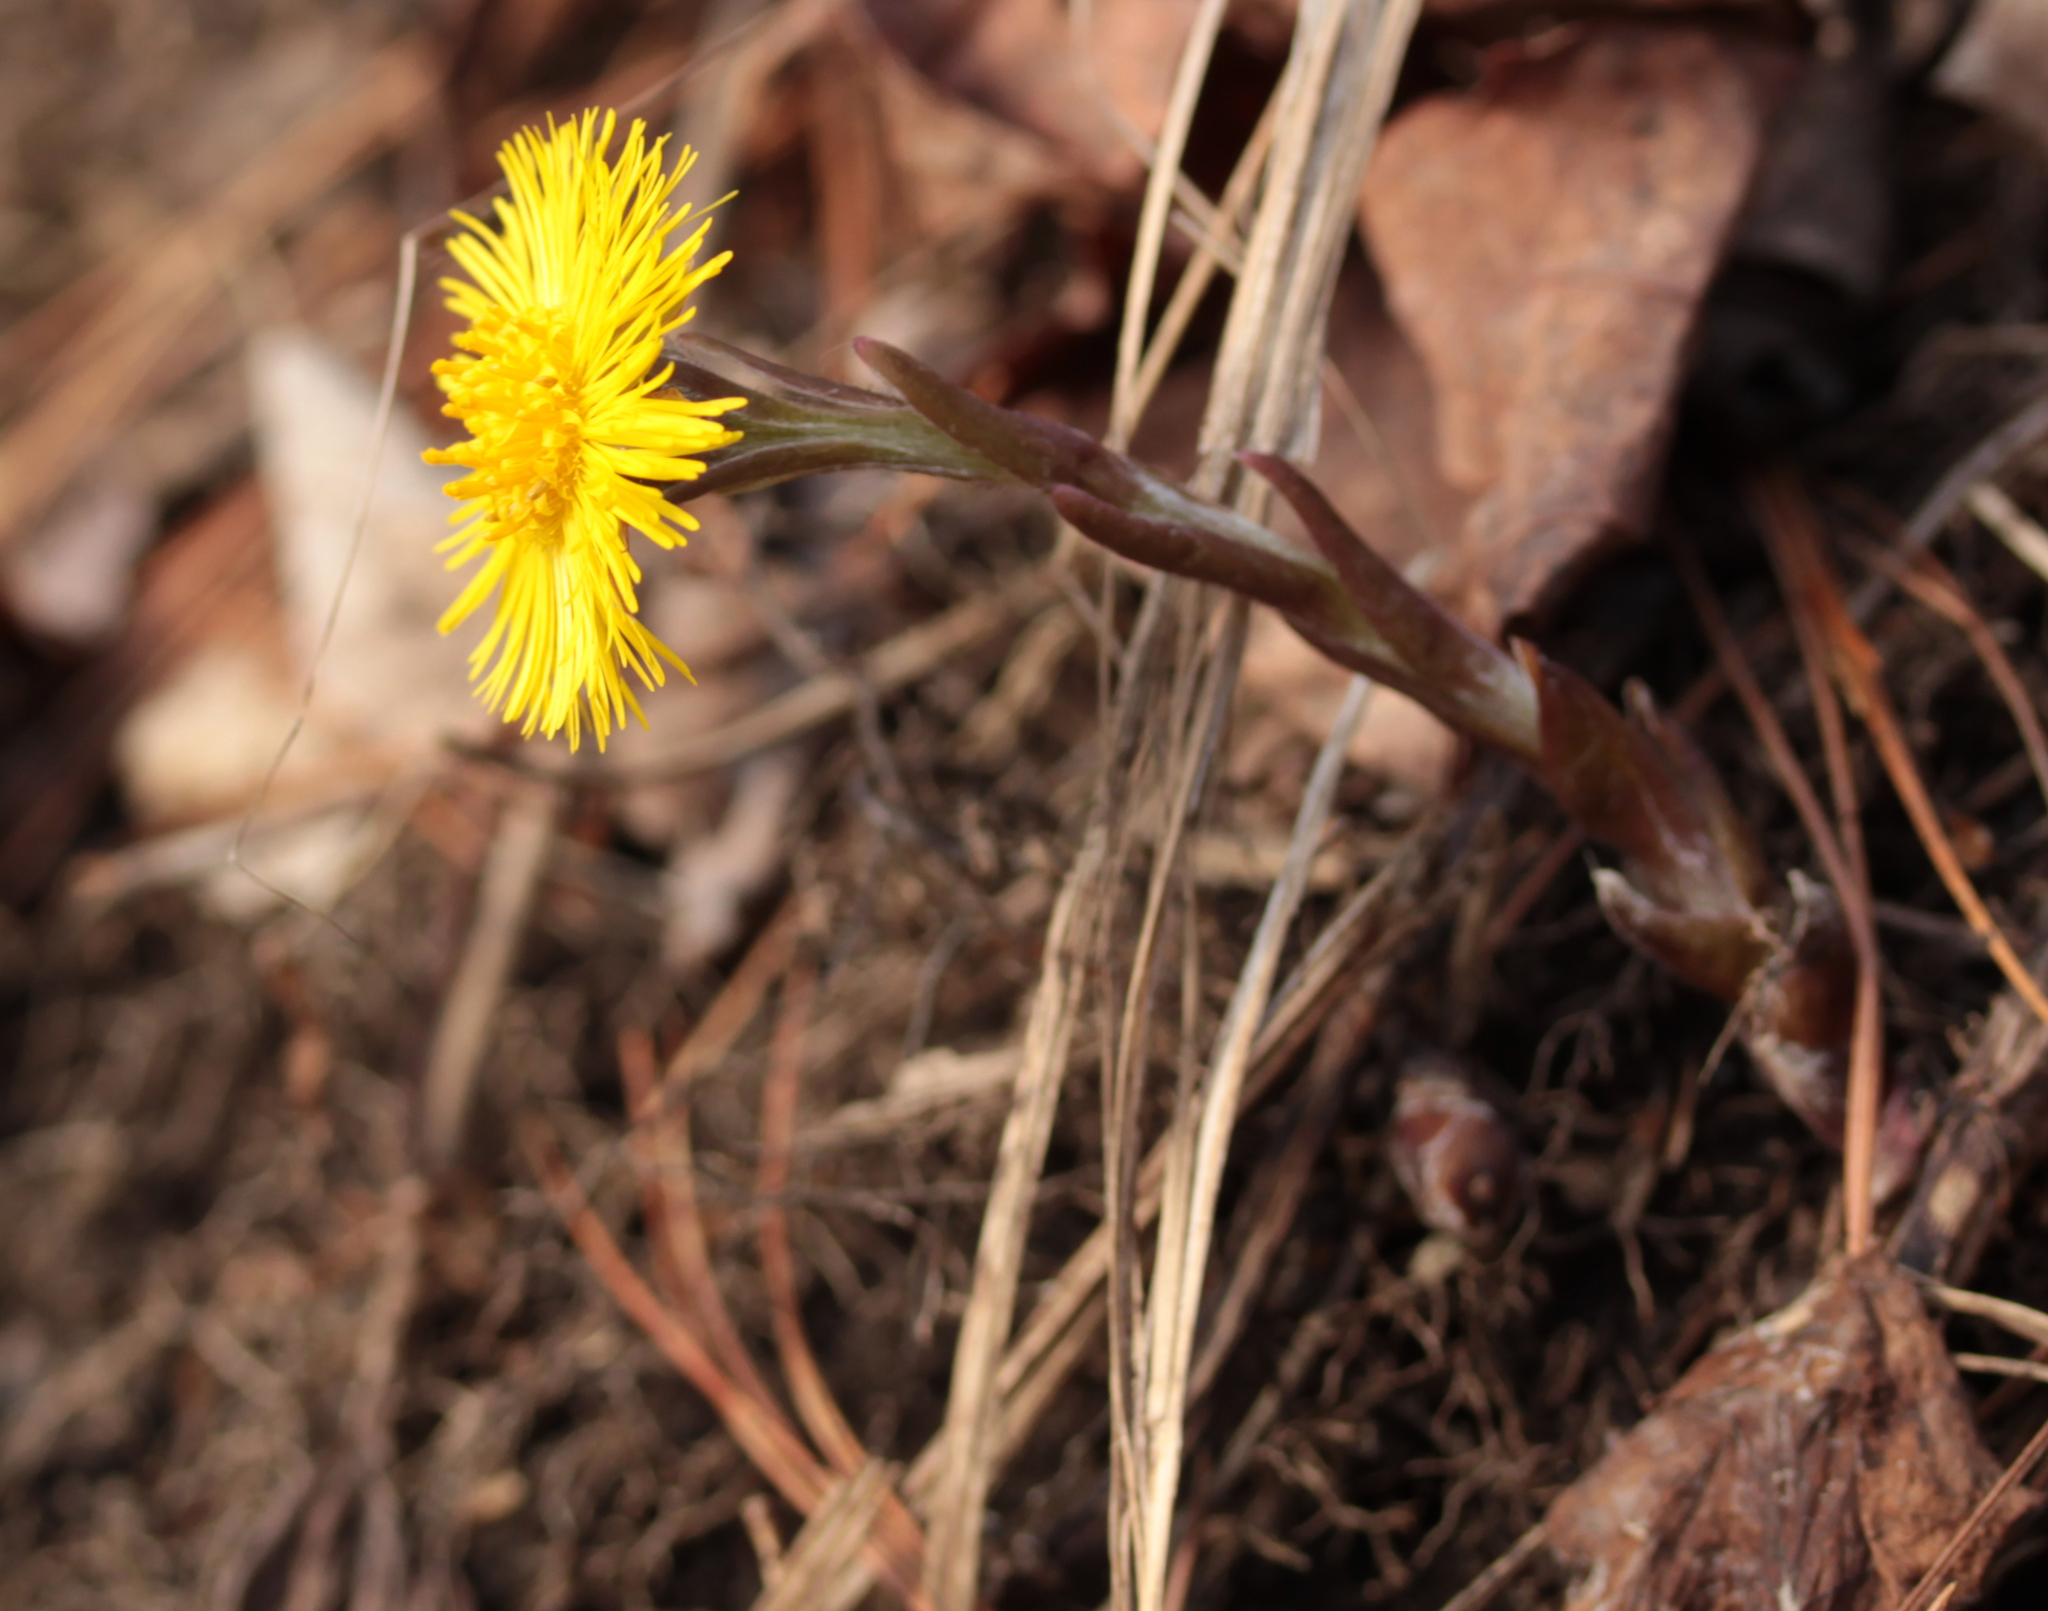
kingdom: Plantae
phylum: Tracheophyta
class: Magnoliopsida
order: Asterales
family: Asteraceae
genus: Tussilago
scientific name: Tussilago farfara
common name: Coltsfoot
